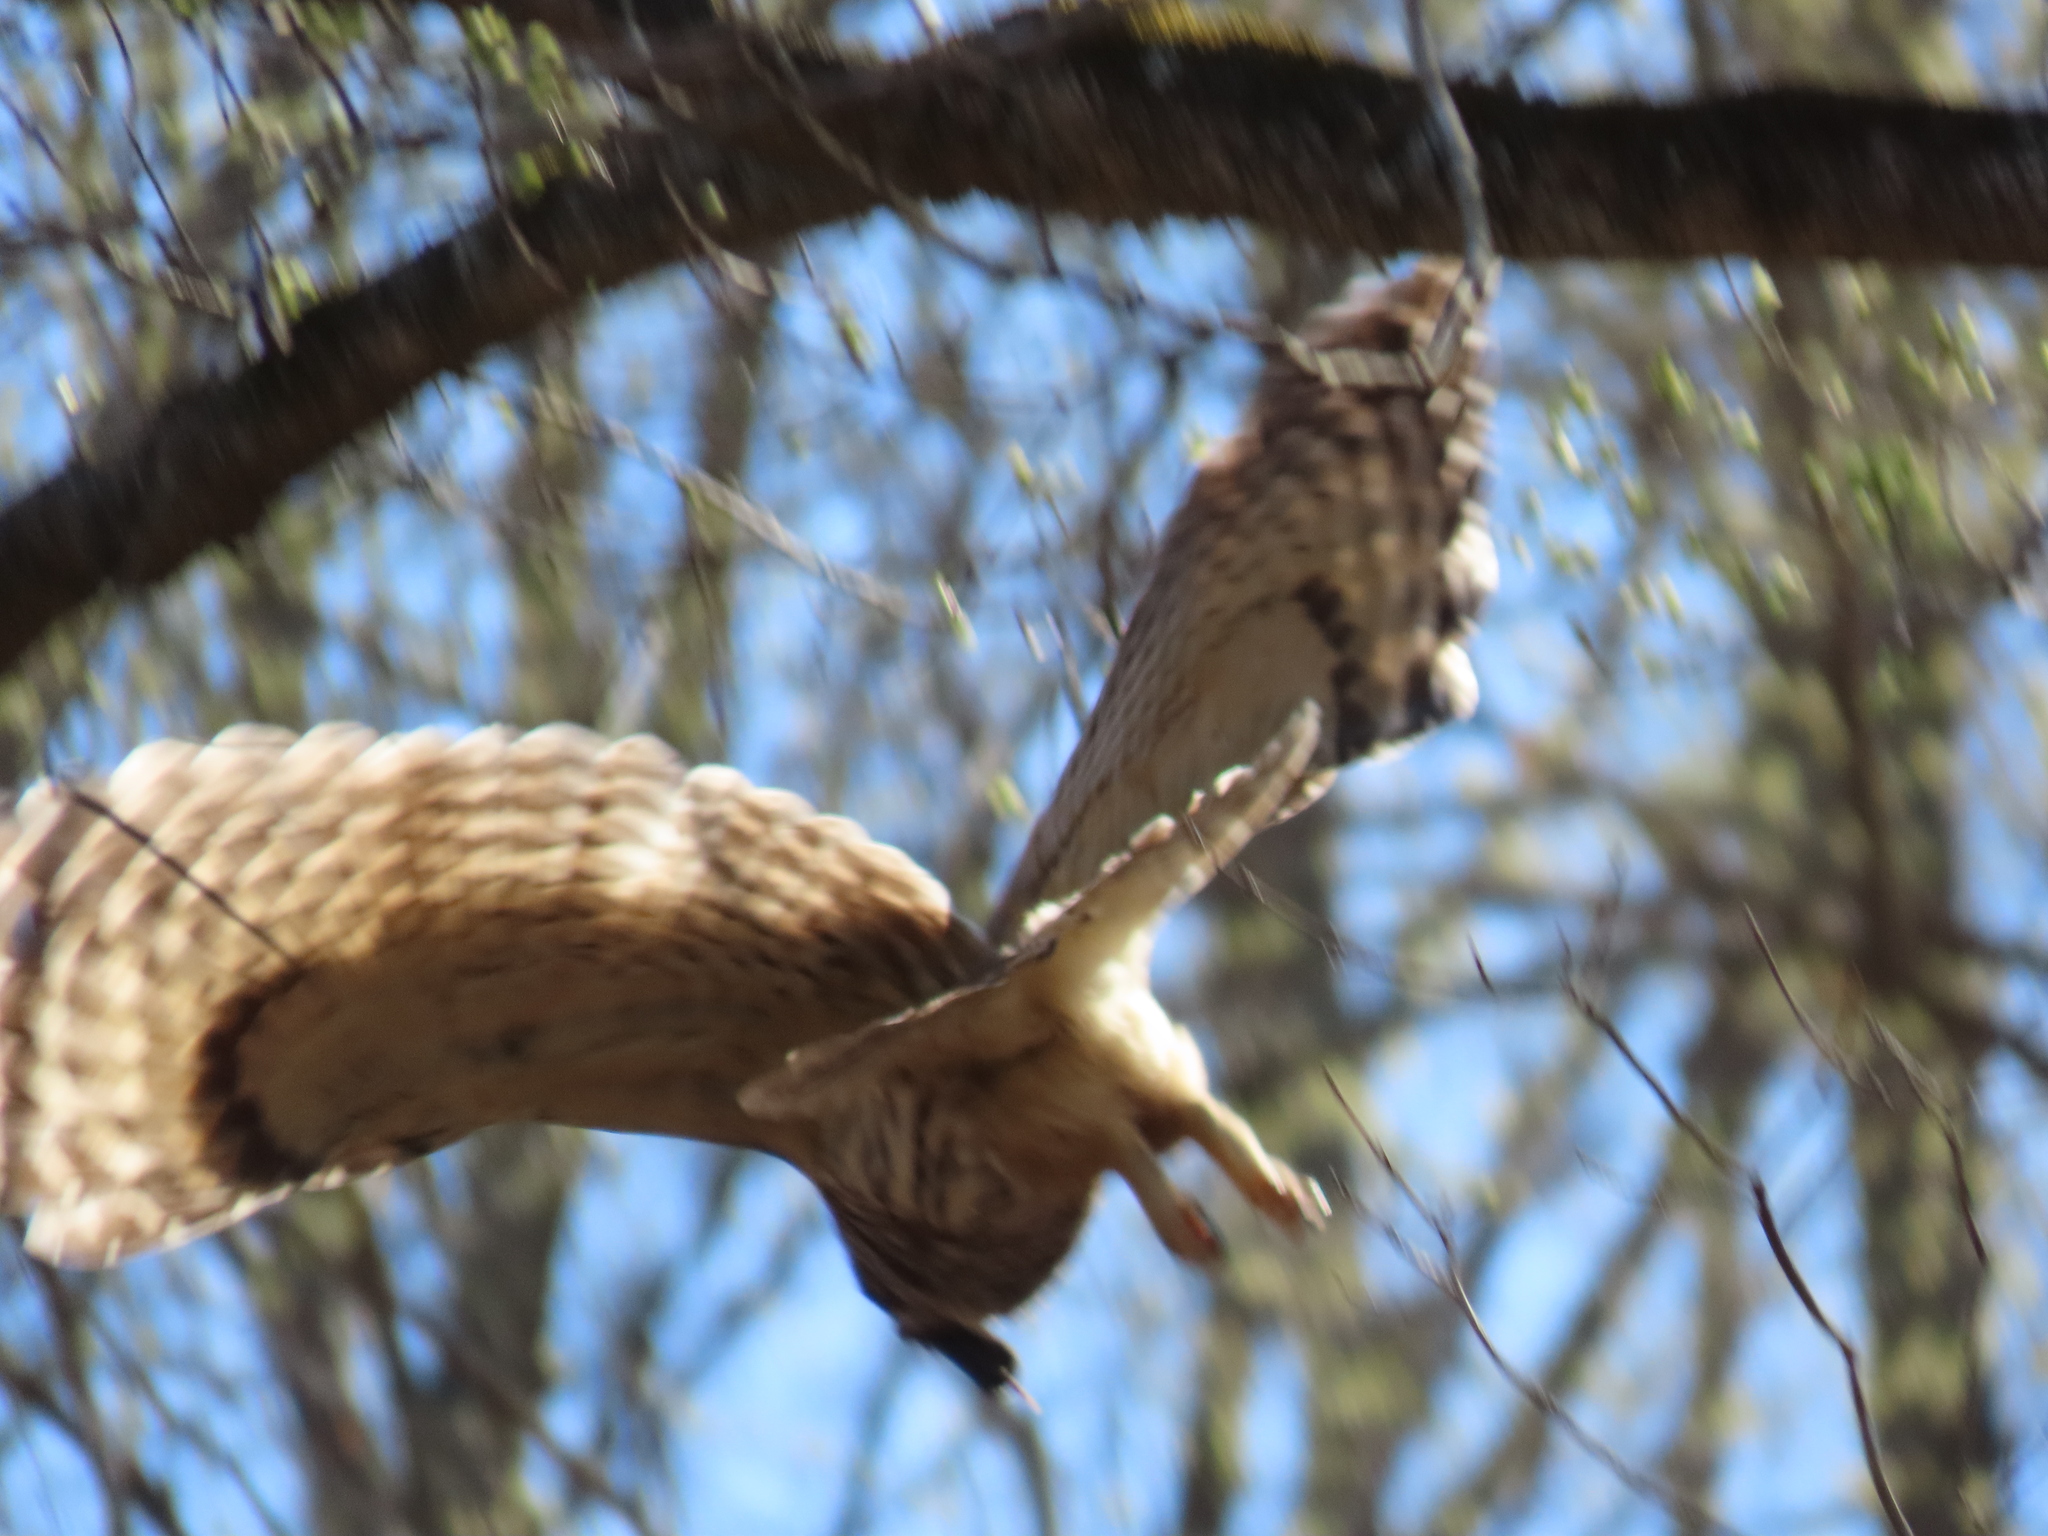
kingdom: Animalia
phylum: Chordata
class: Aves
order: Strigiformes
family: Strigidae
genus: Strix
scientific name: Strix varia
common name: Barred owl
